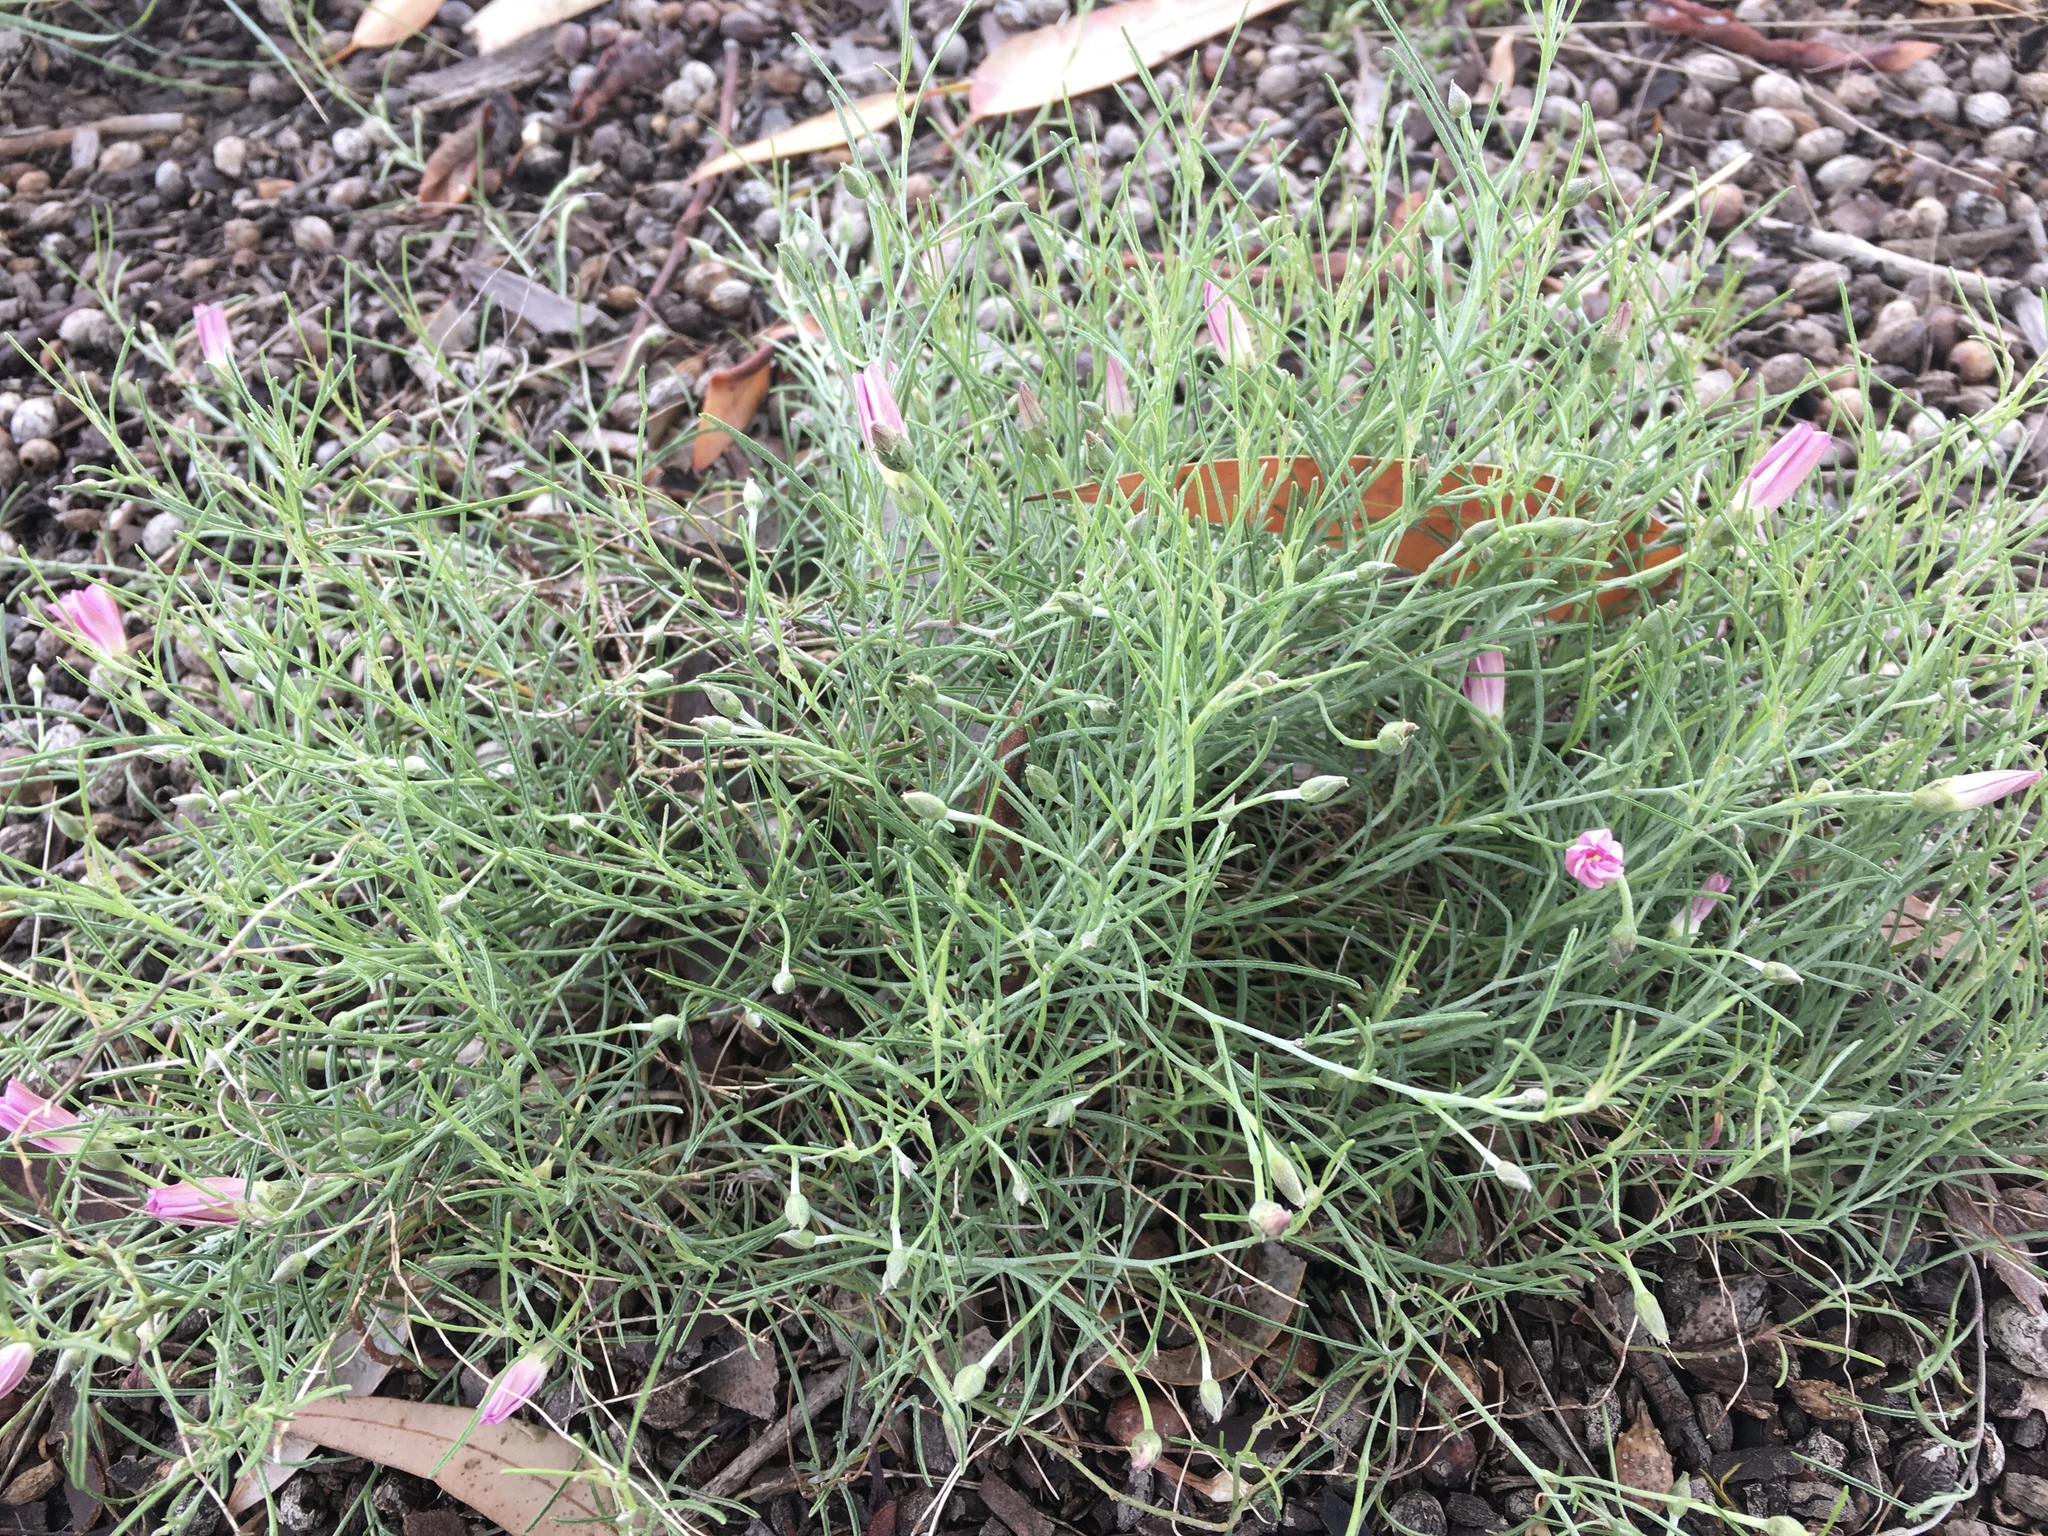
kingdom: Plantae
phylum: Tracheophyta
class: Magnoliopsida
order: Solanales
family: Convolvulaceae
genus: Convolvulus
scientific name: Convolvulus angustissimus
